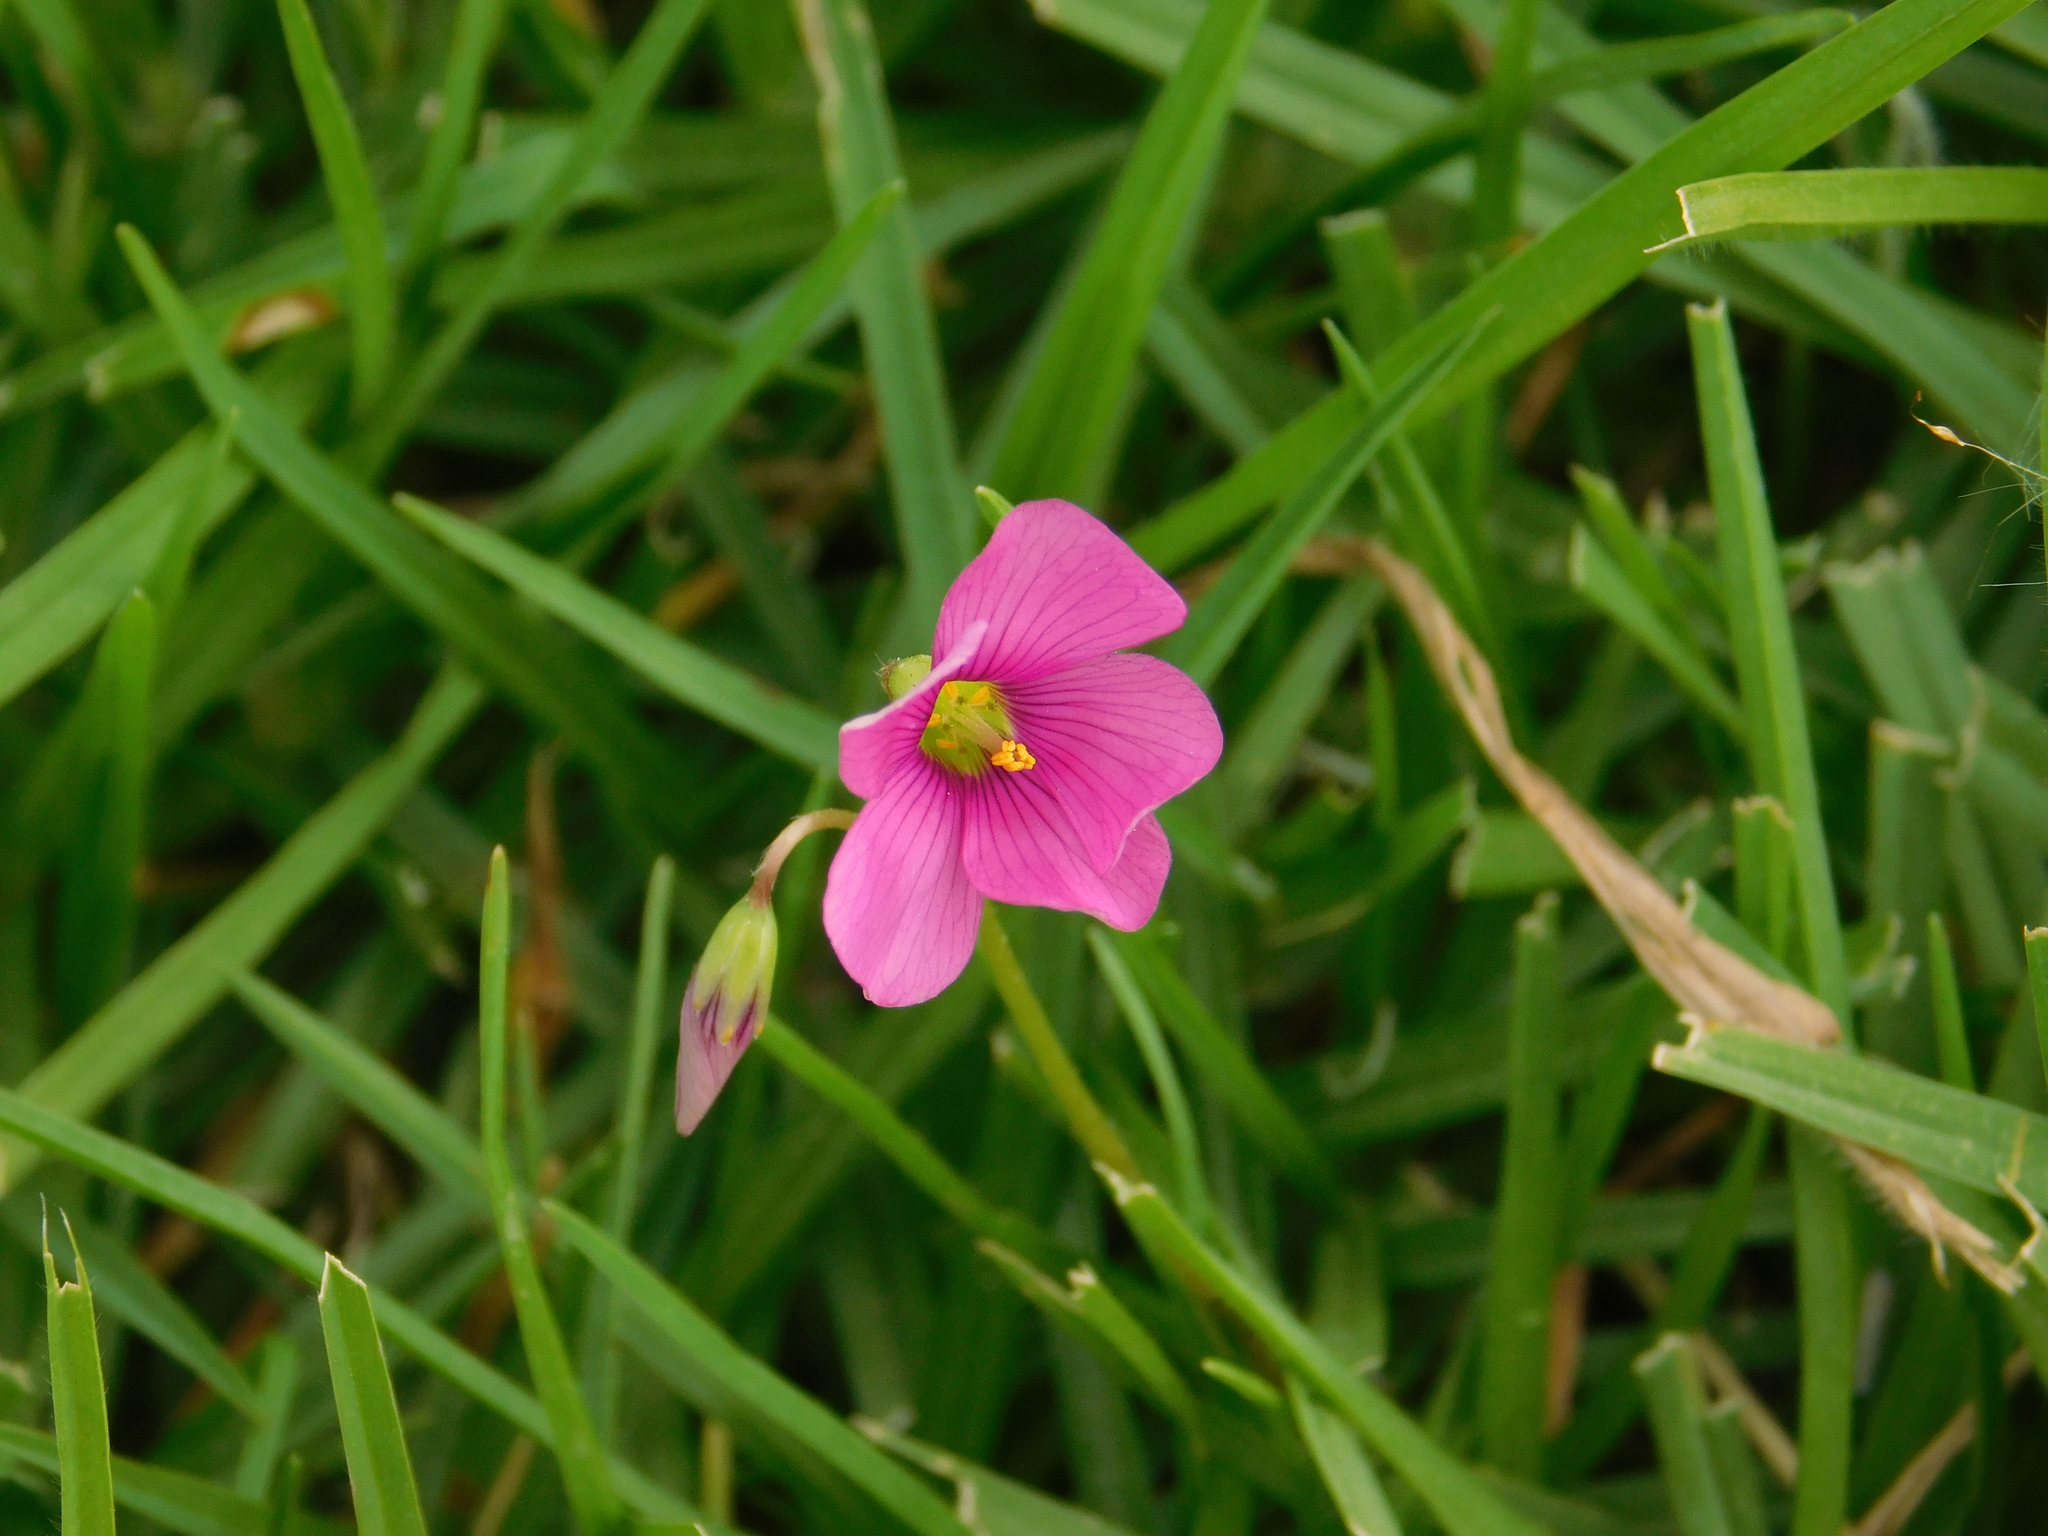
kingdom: Plantae
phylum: Tracheophyta
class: Magnoliopsida
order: Oxalidales
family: Oxalidaceae
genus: Oxalis
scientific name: Oxalis hispidula
